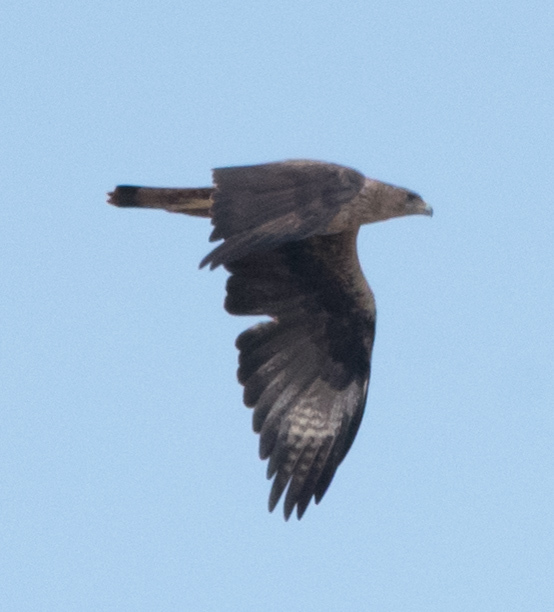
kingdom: Animalia
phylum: Chordata
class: Aves
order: Accipitriformes
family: Accipitridae
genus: Milvus
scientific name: Milvus migrans
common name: Black kite
